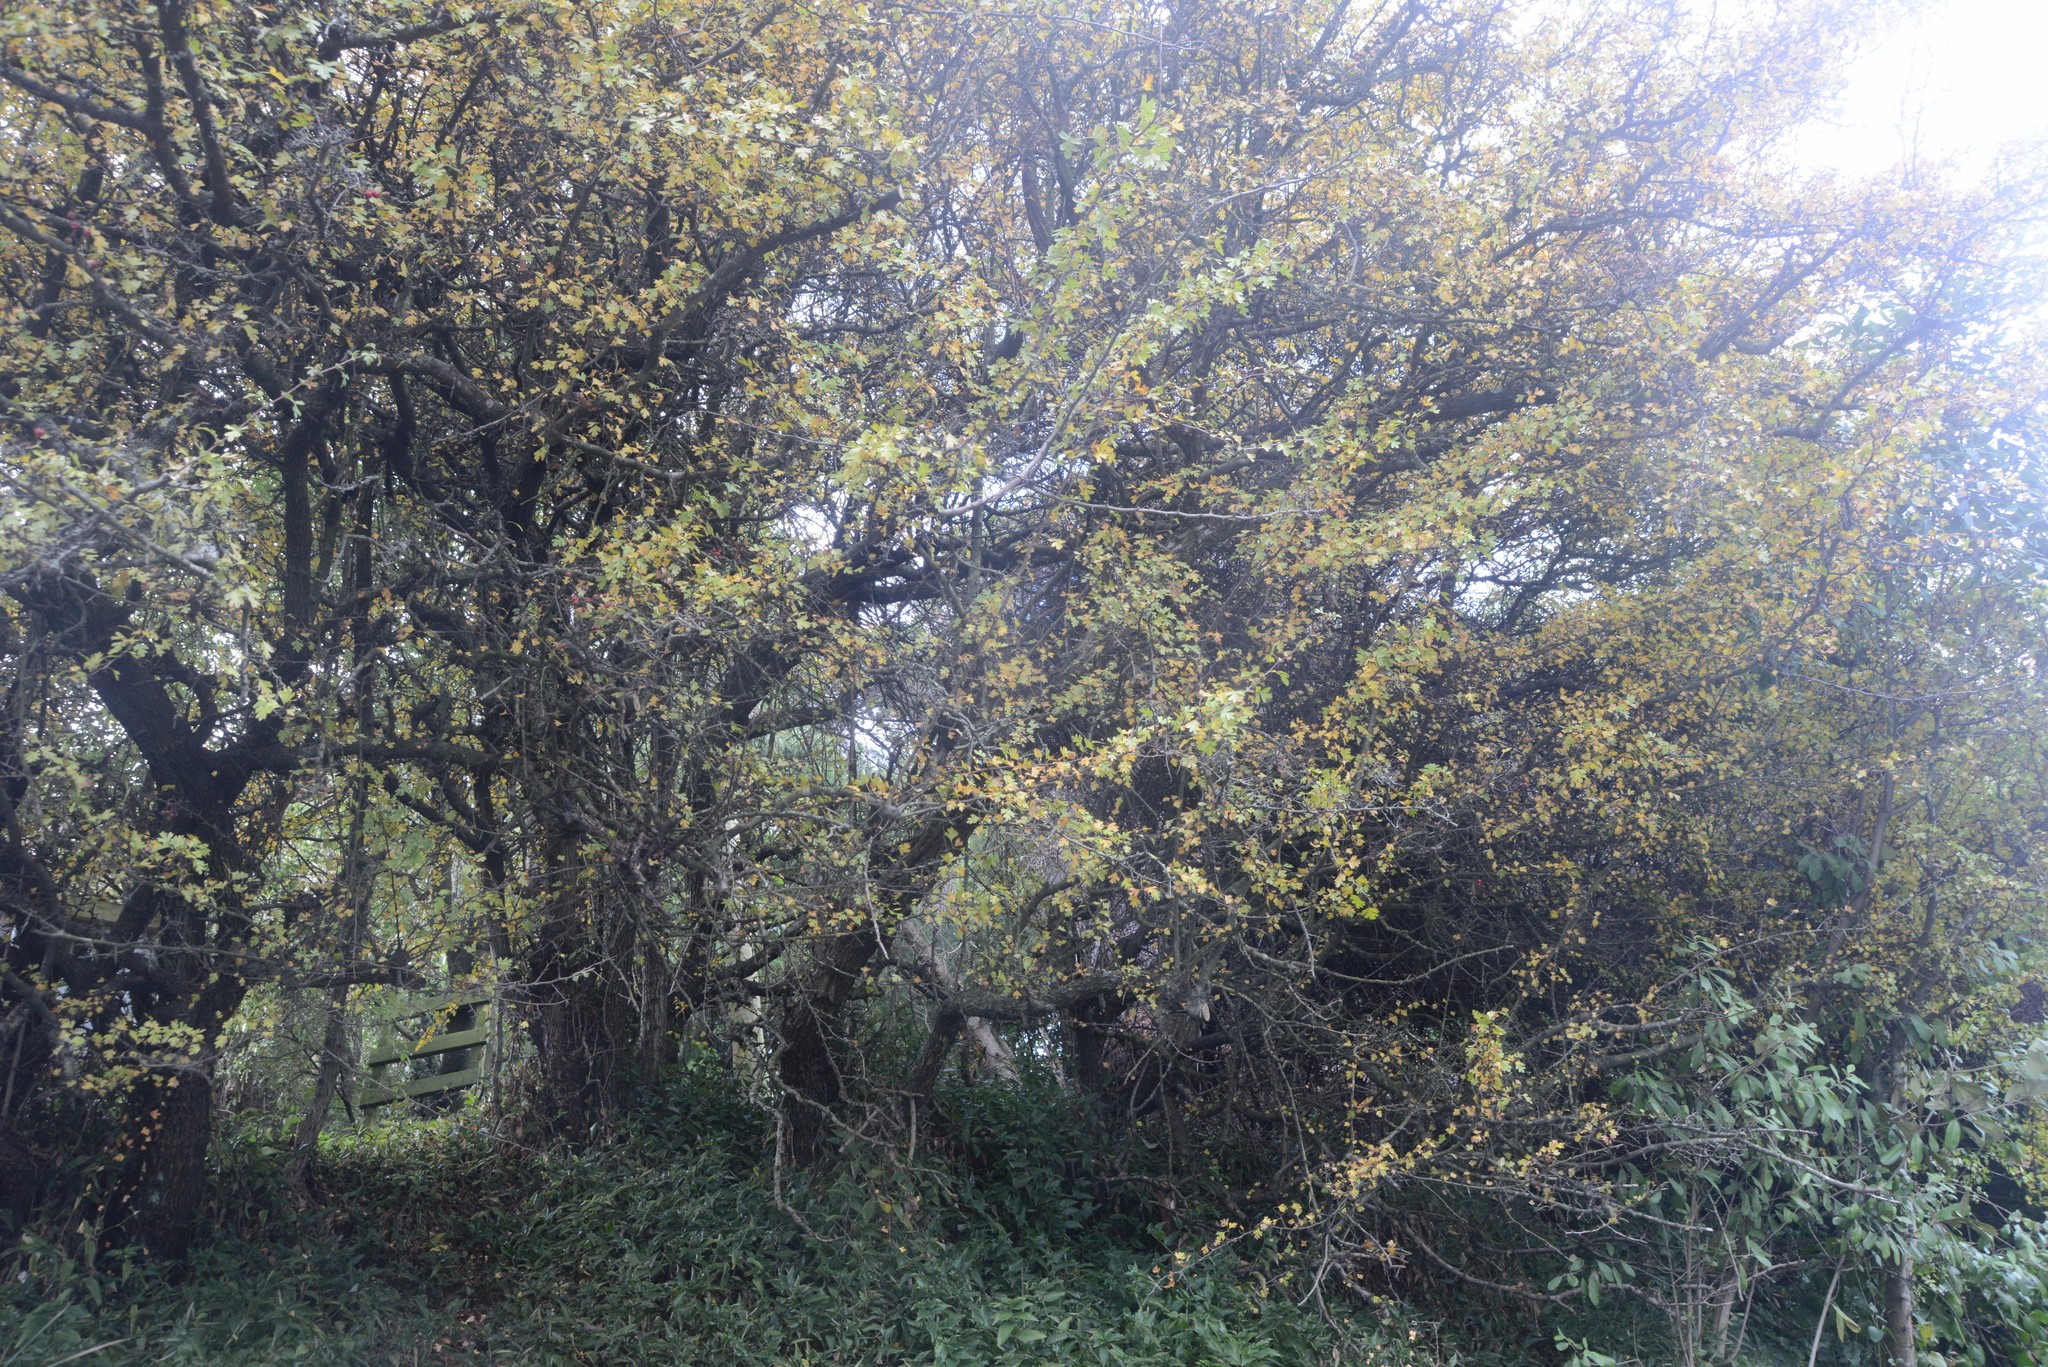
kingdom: Plantae
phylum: Tracheophyta
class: Magnoliopsida
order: Rosales
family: Rosaceae
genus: Crataegus
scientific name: Crataegus monogyna
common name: Hawthorn
